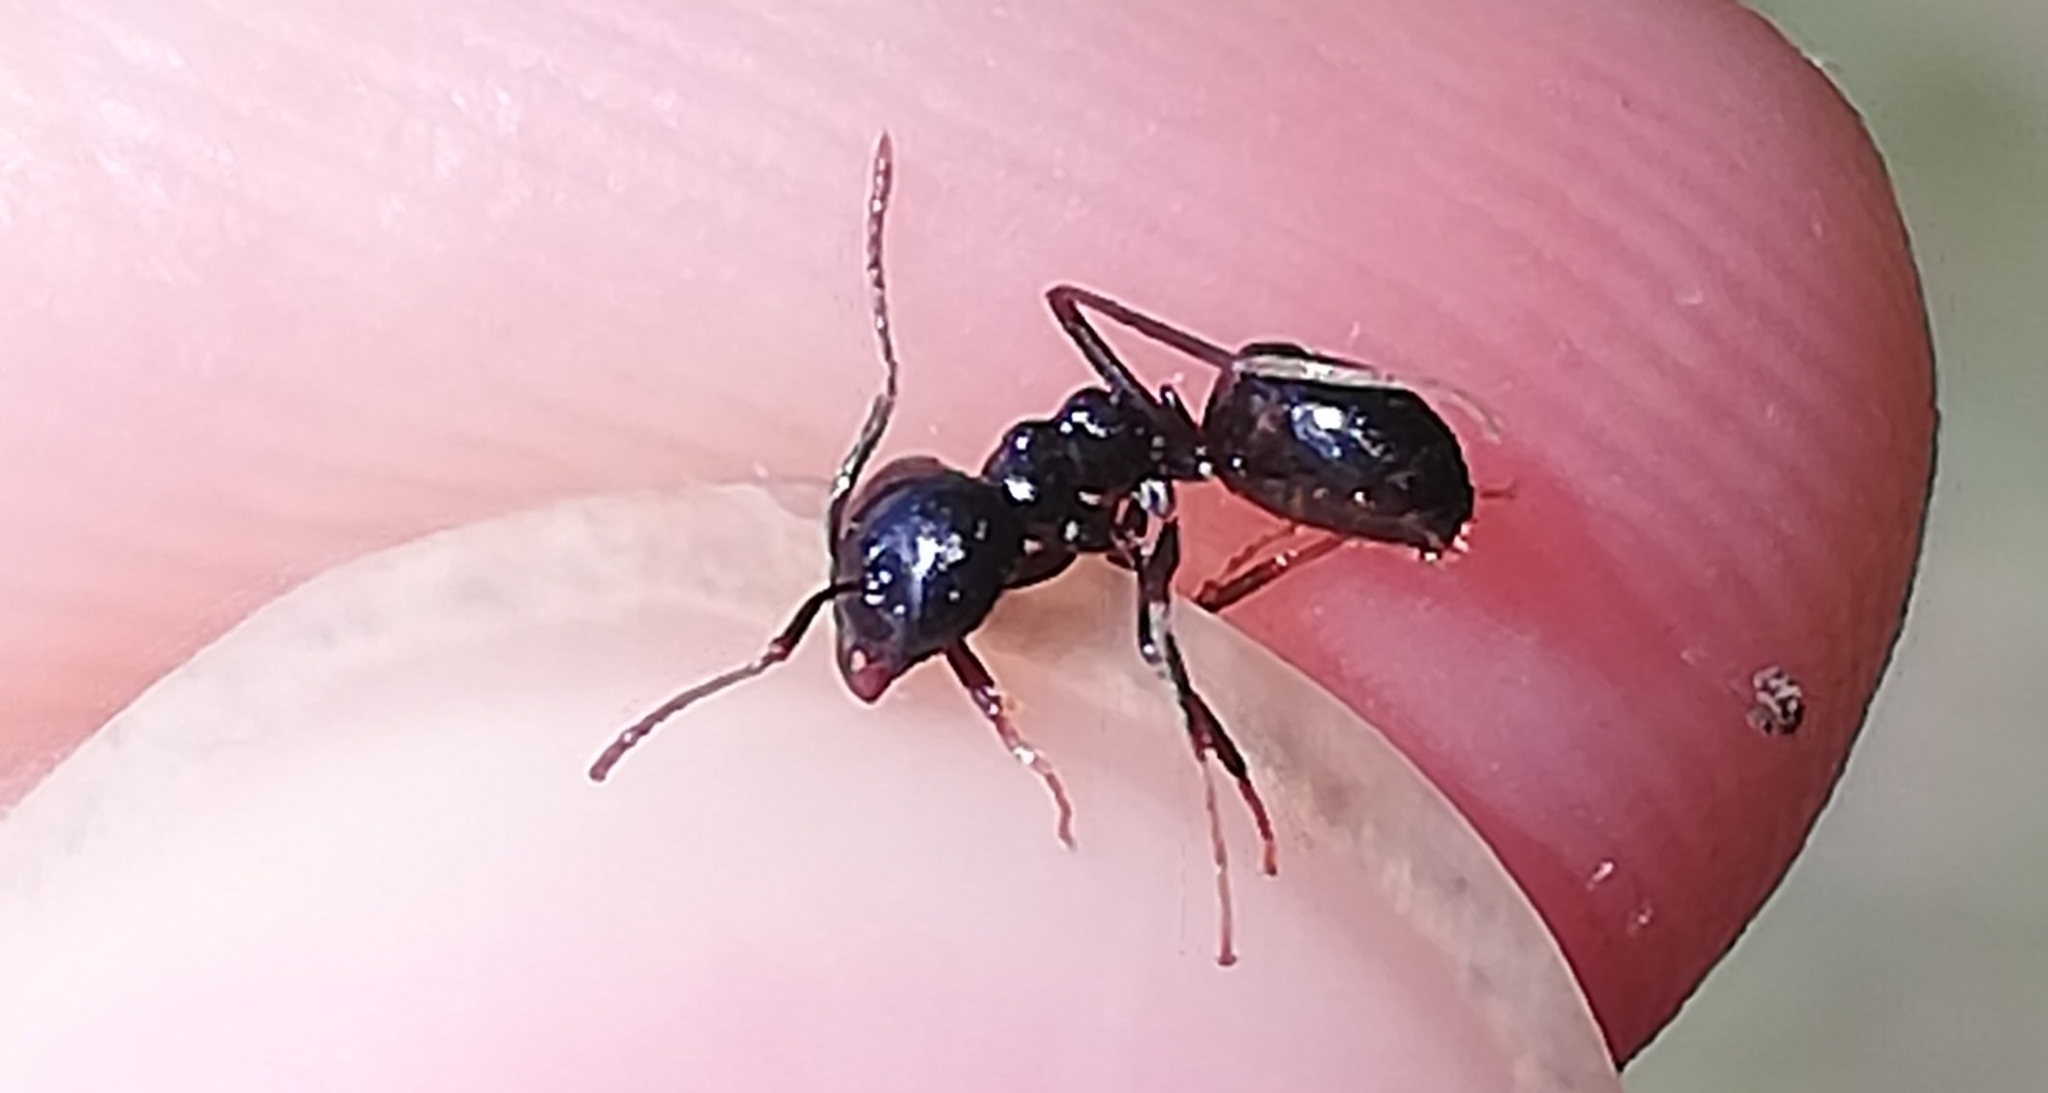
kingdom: Animalia
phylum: Arthropoda
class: Insecta
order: Hymenoptera
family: Formicidae
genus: Lasius
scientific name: Lasius fuliginosus
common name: Jet ant
